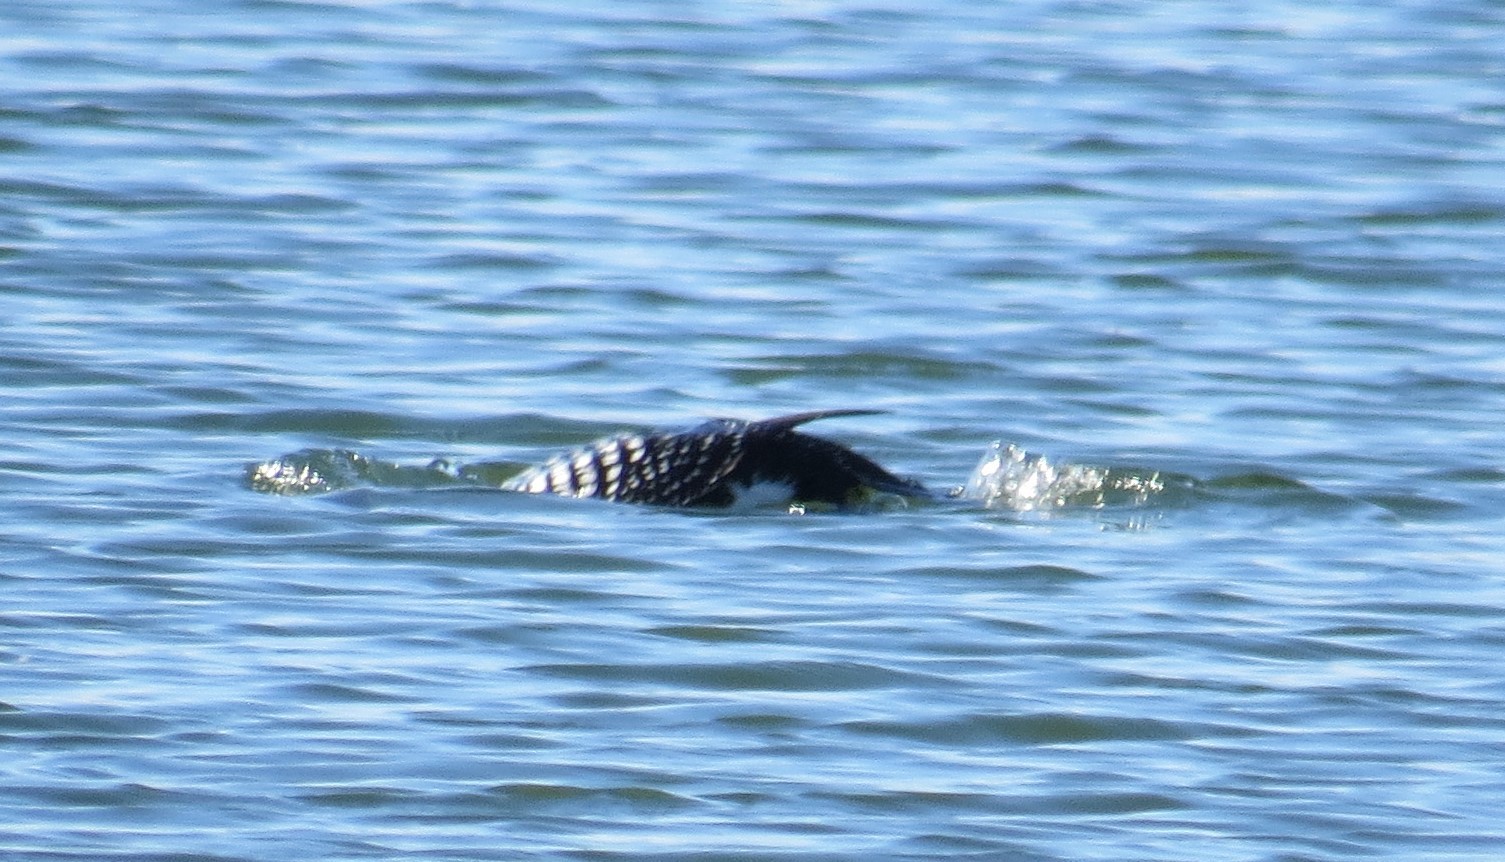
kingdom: Animalia
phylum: Chordata
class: Aves
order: Gaviiformes
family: Gaviidae
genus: Gavia
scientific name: Gavia immer
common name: Common loon
